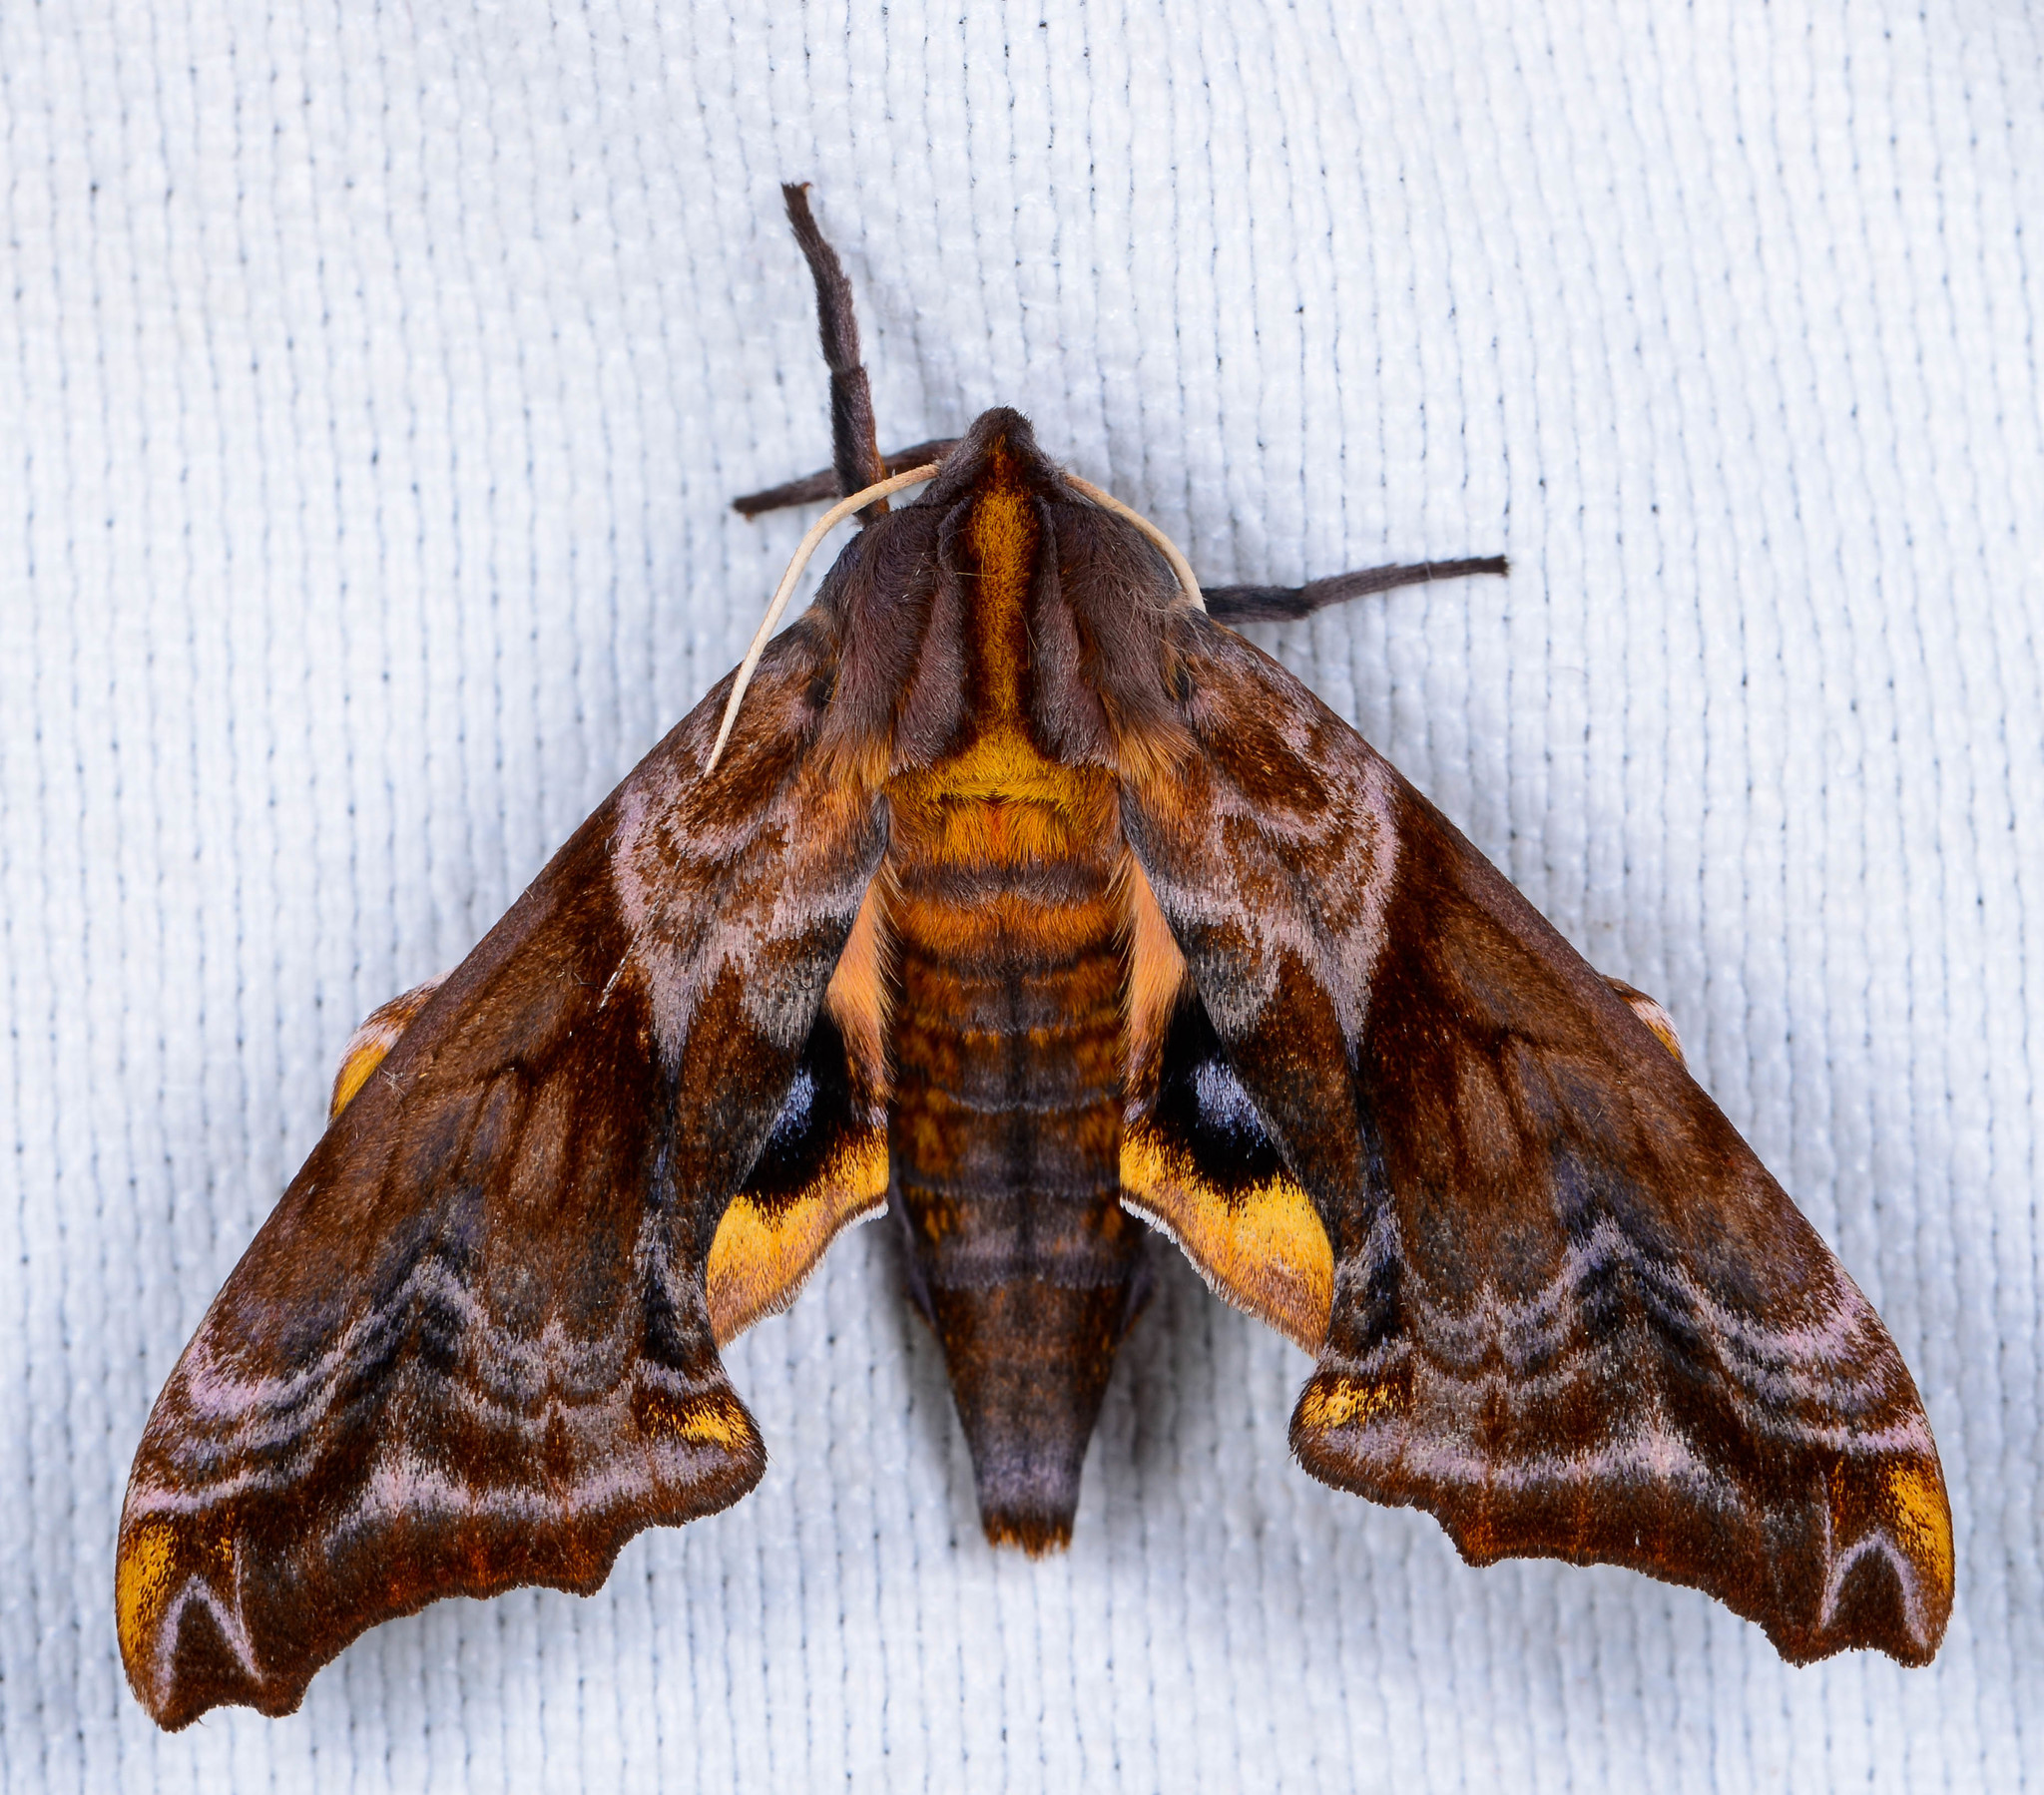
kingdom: Animalia
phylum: Arthropoda
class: Insecta
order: Lepidoptera
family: Sphingidae
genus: Paonias
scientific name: Paonias myops
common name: Small-eyed sphinx
